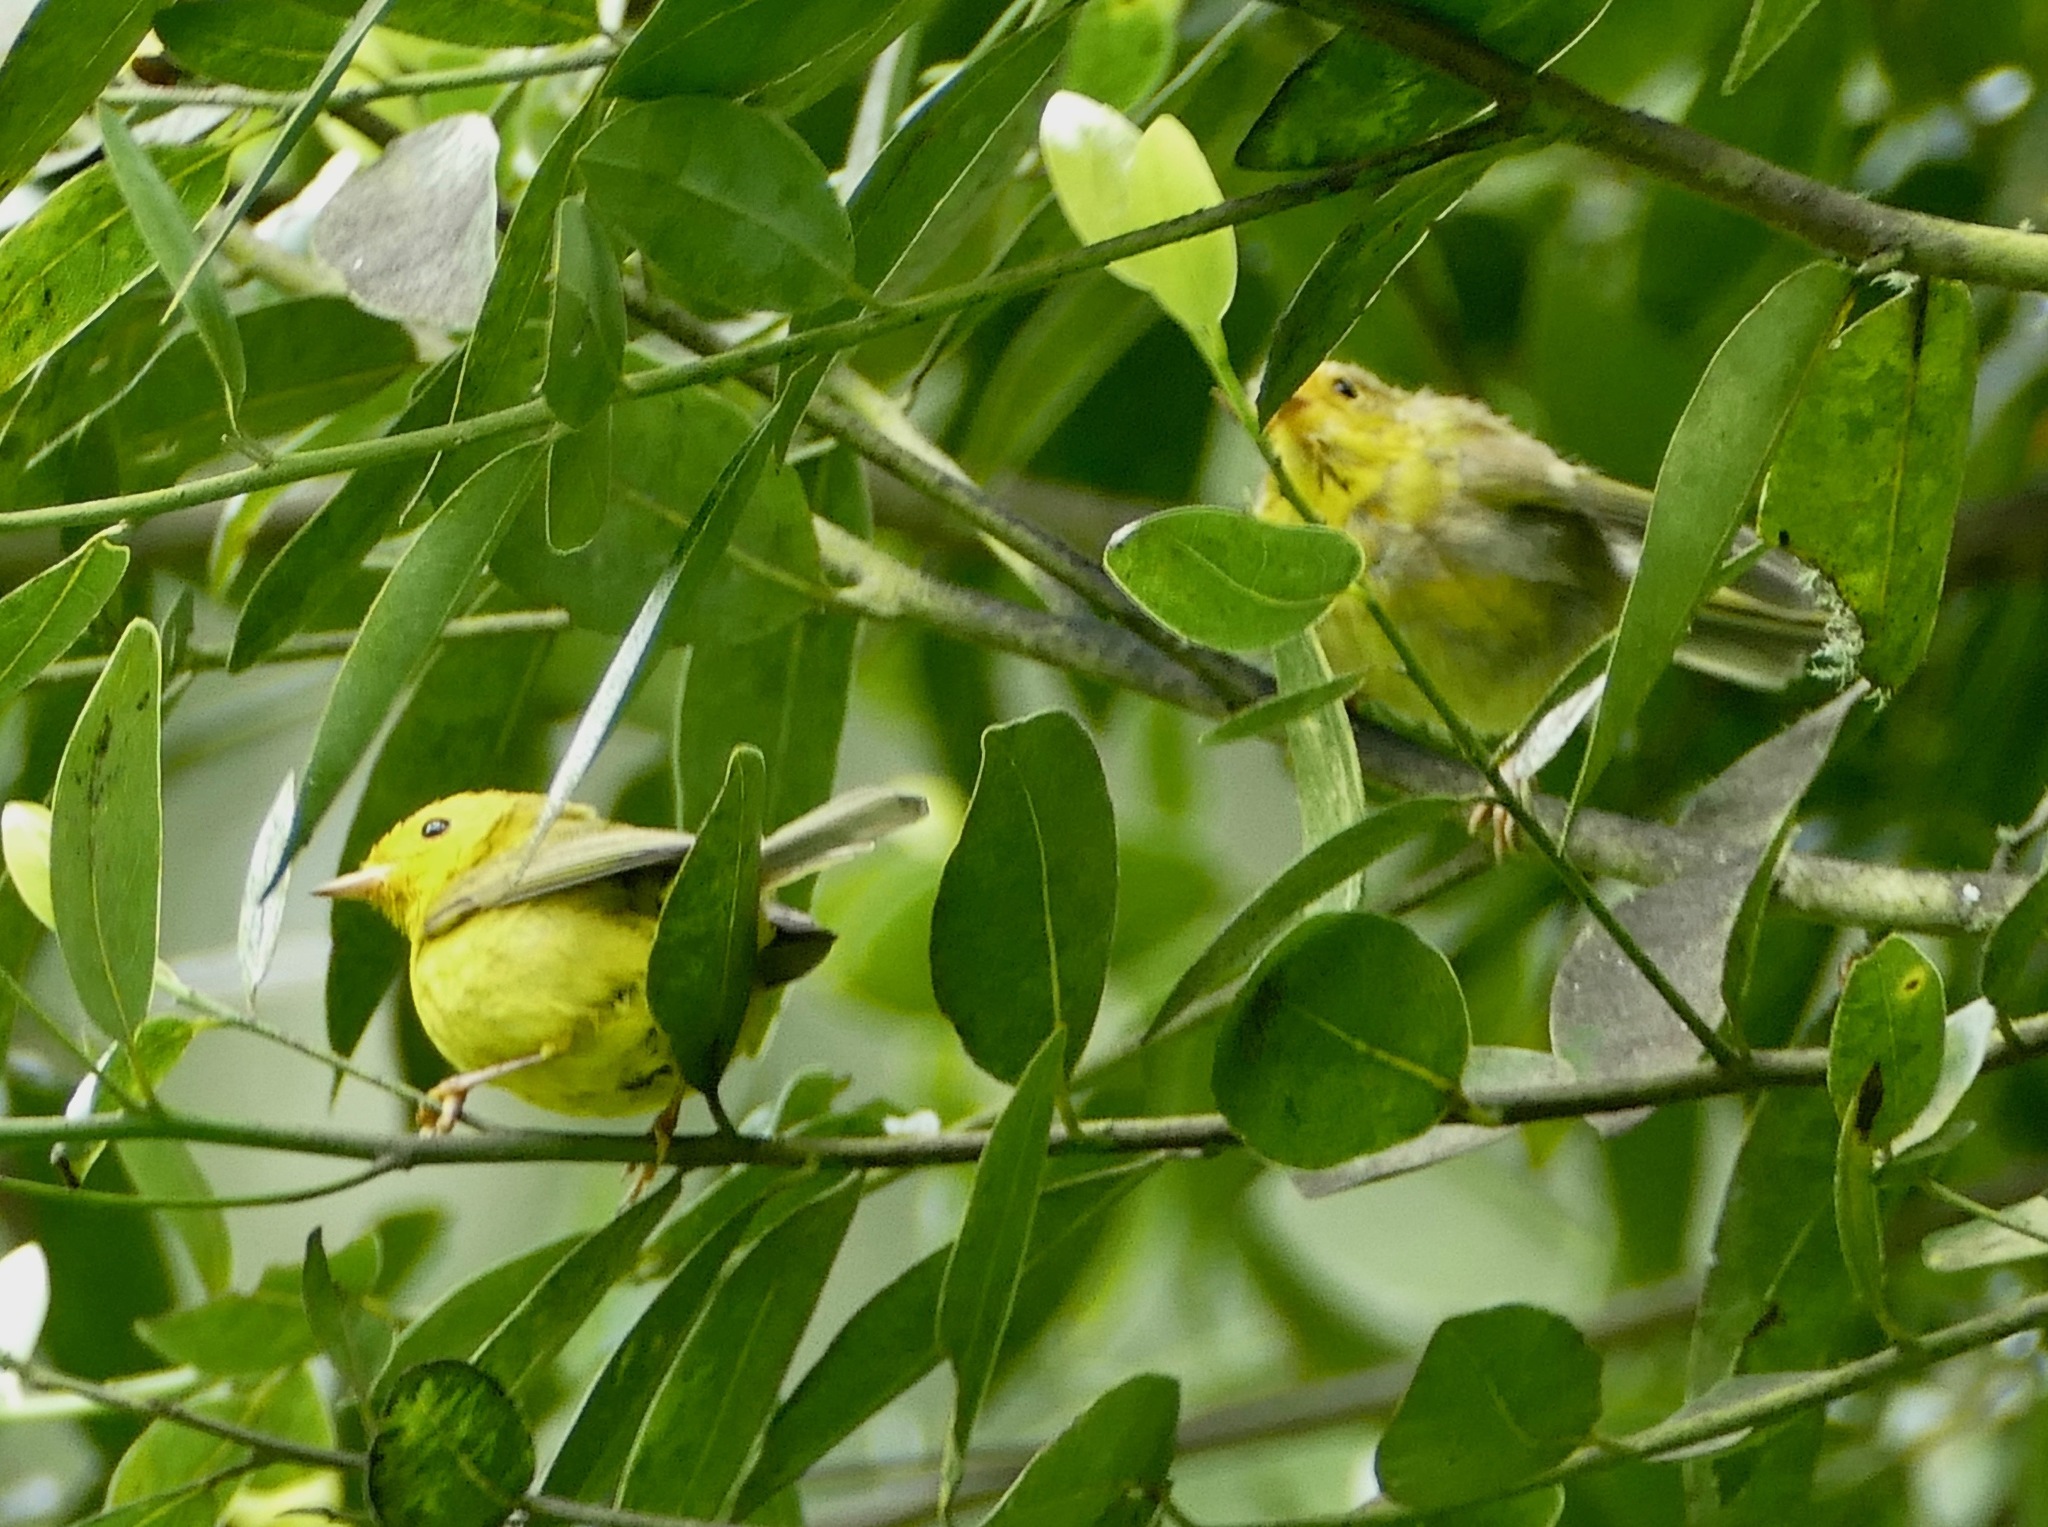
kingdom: Animalia
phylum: Chordata
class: Aves
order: Passeriformes
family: Parulidae
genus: Cardellina
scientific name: Cardellina pusilla
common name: Wilson's warbler
